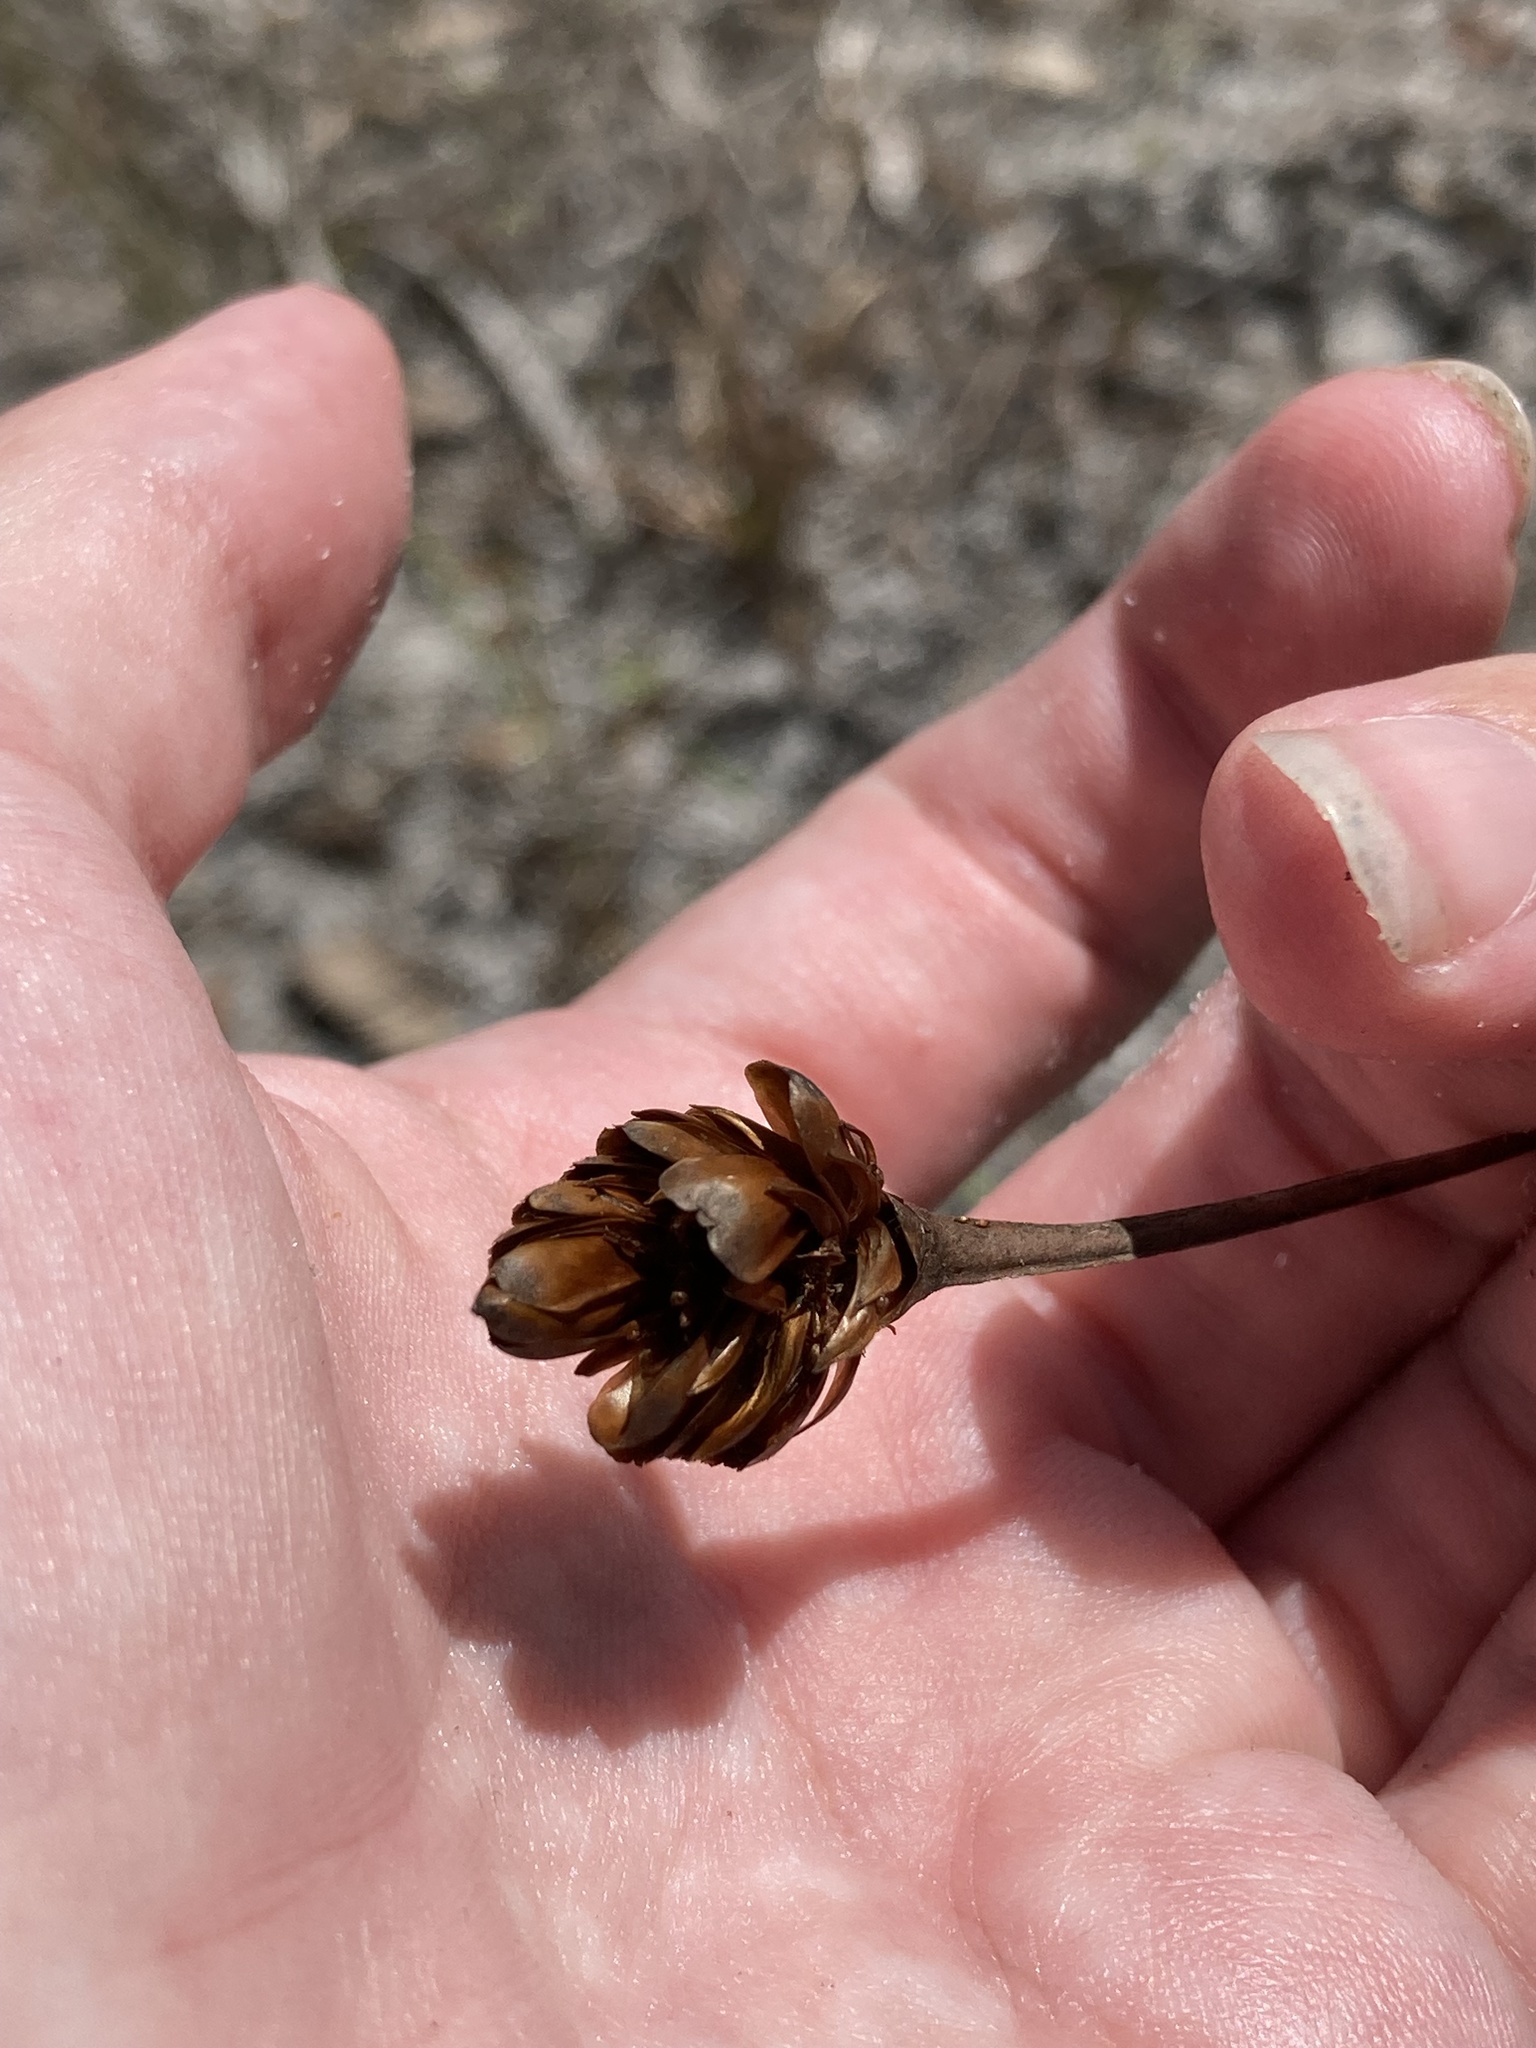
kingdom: Plantae
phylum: Tracheophyta
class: Liliopsida
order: Poales
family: Xyridaceae
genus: Xyris
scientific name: Xyris ambigua
